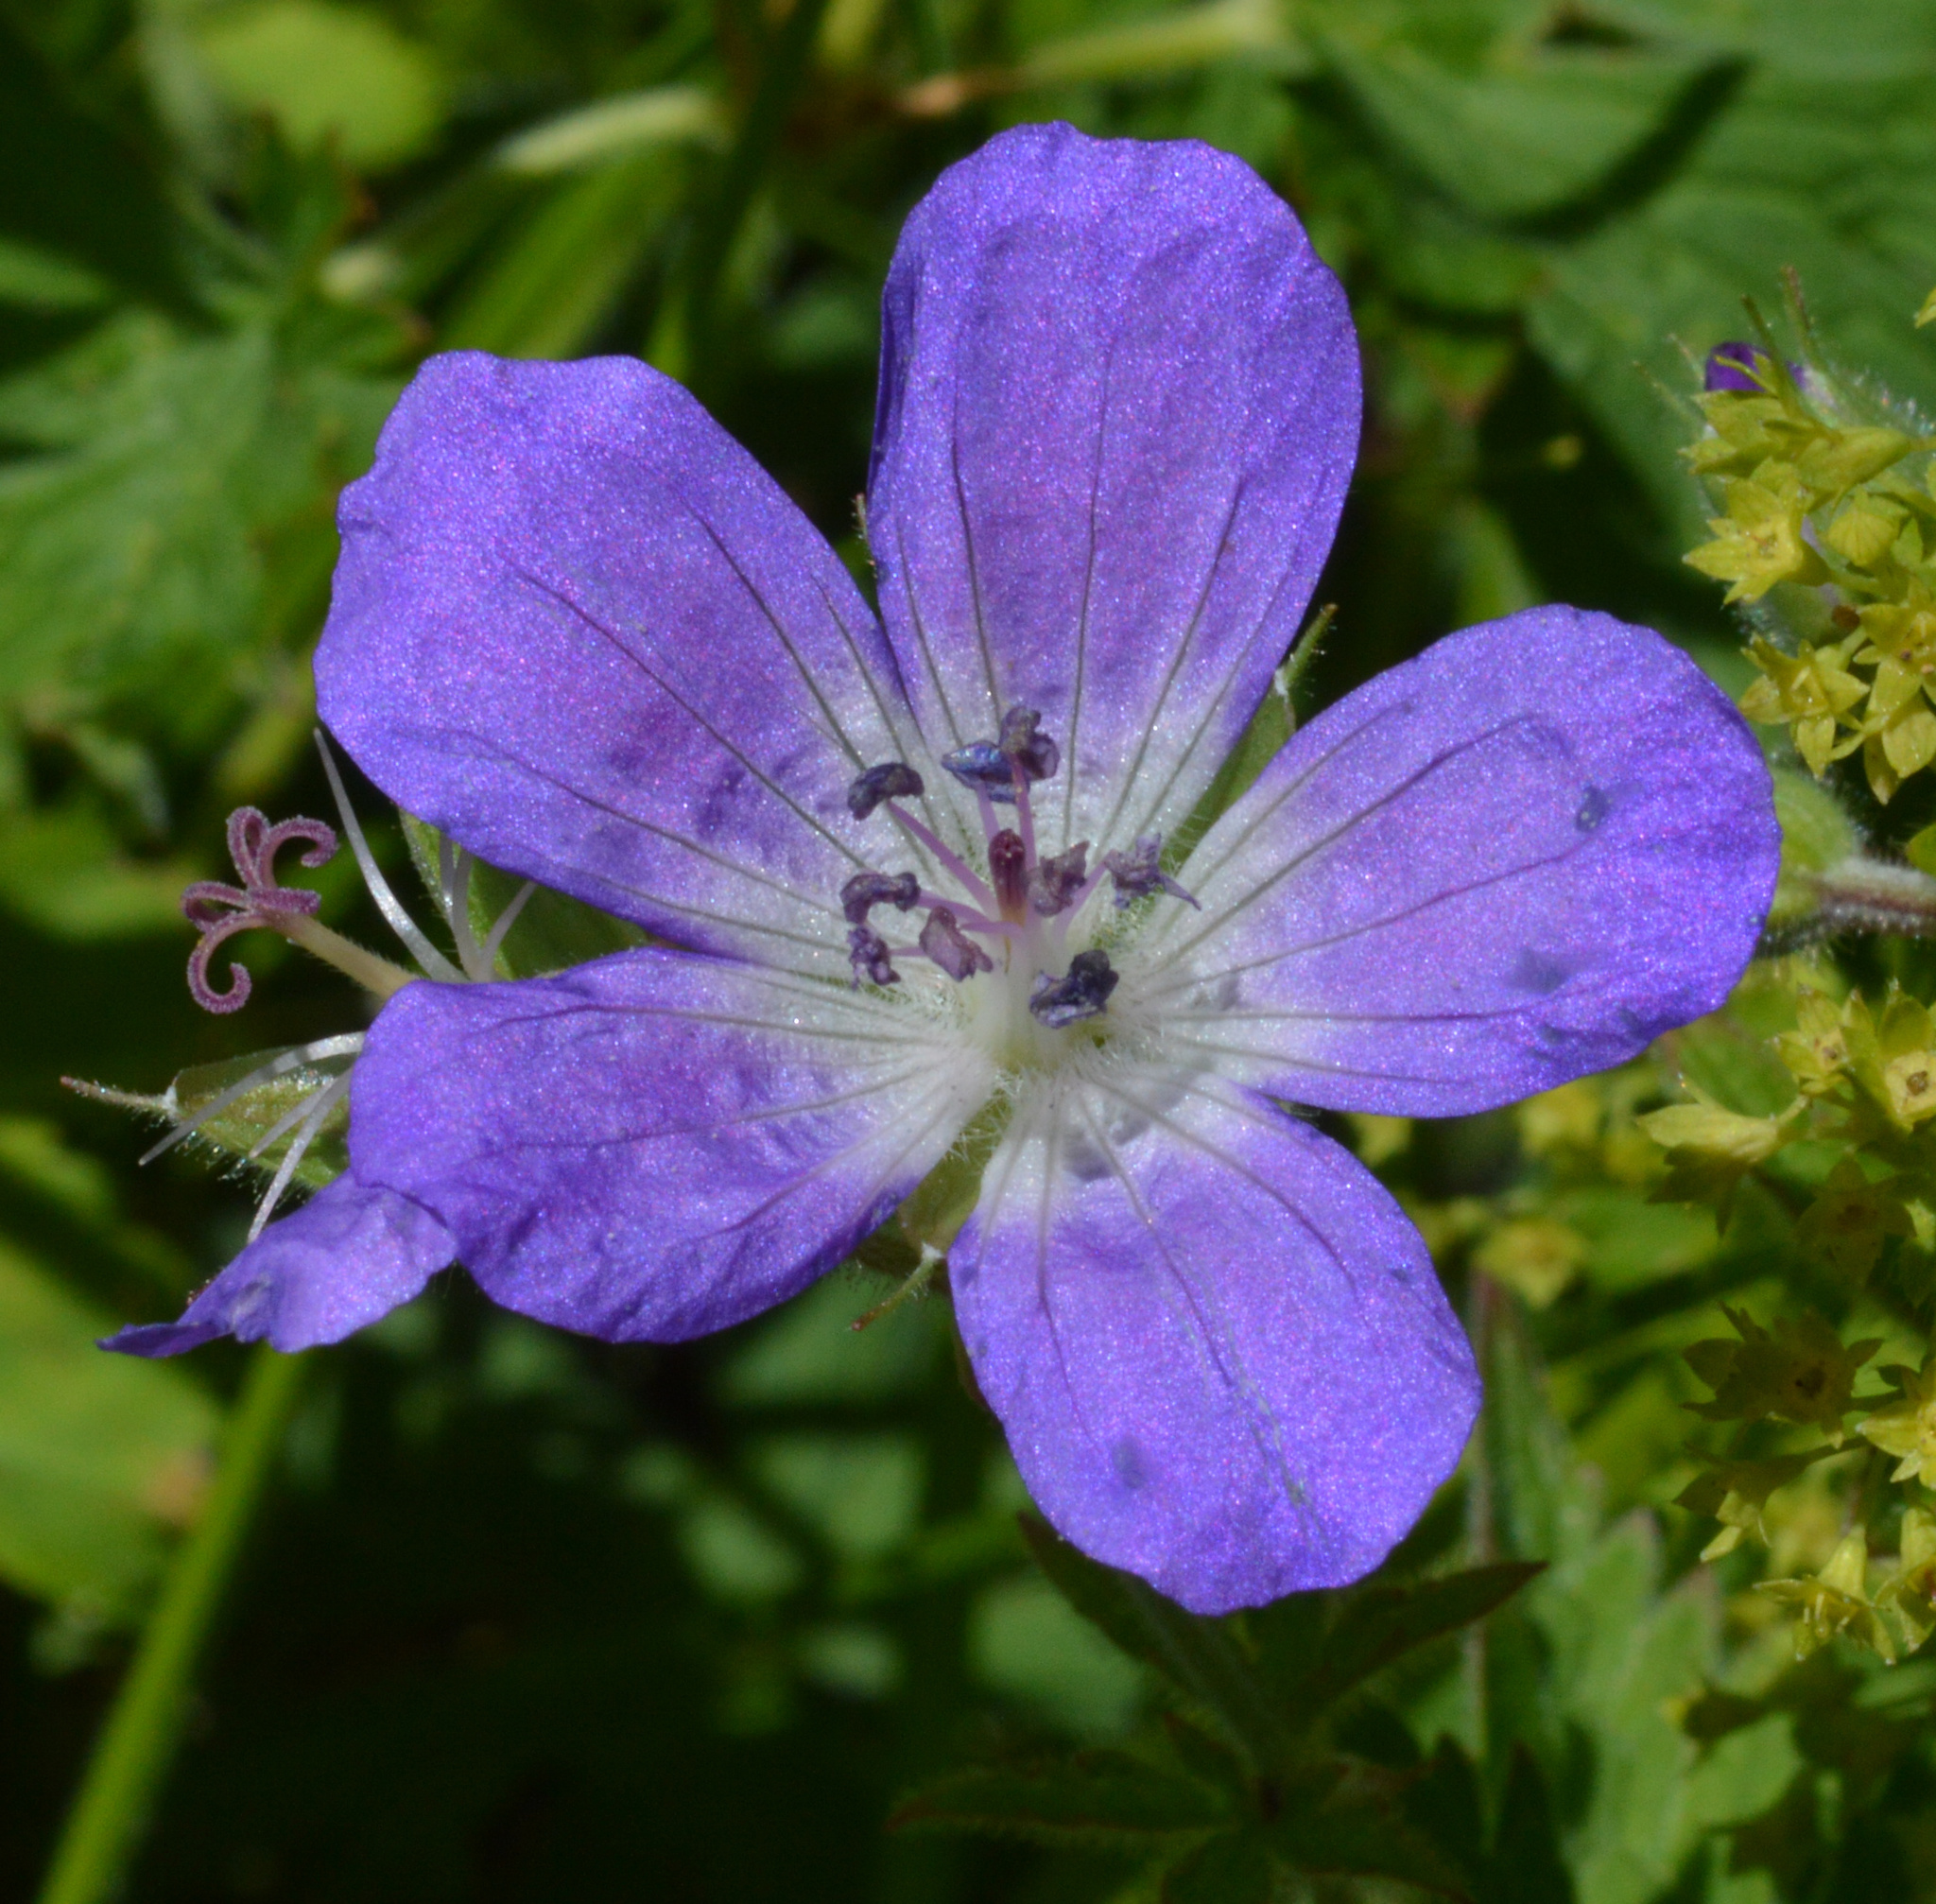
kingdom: Plantae
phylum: Tracheophyta
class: Magnoliopsida
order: Geraniales
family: Geraniaceae
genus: Geranium
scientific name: Geranium sylvaticum
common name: Wood crane's-bill
